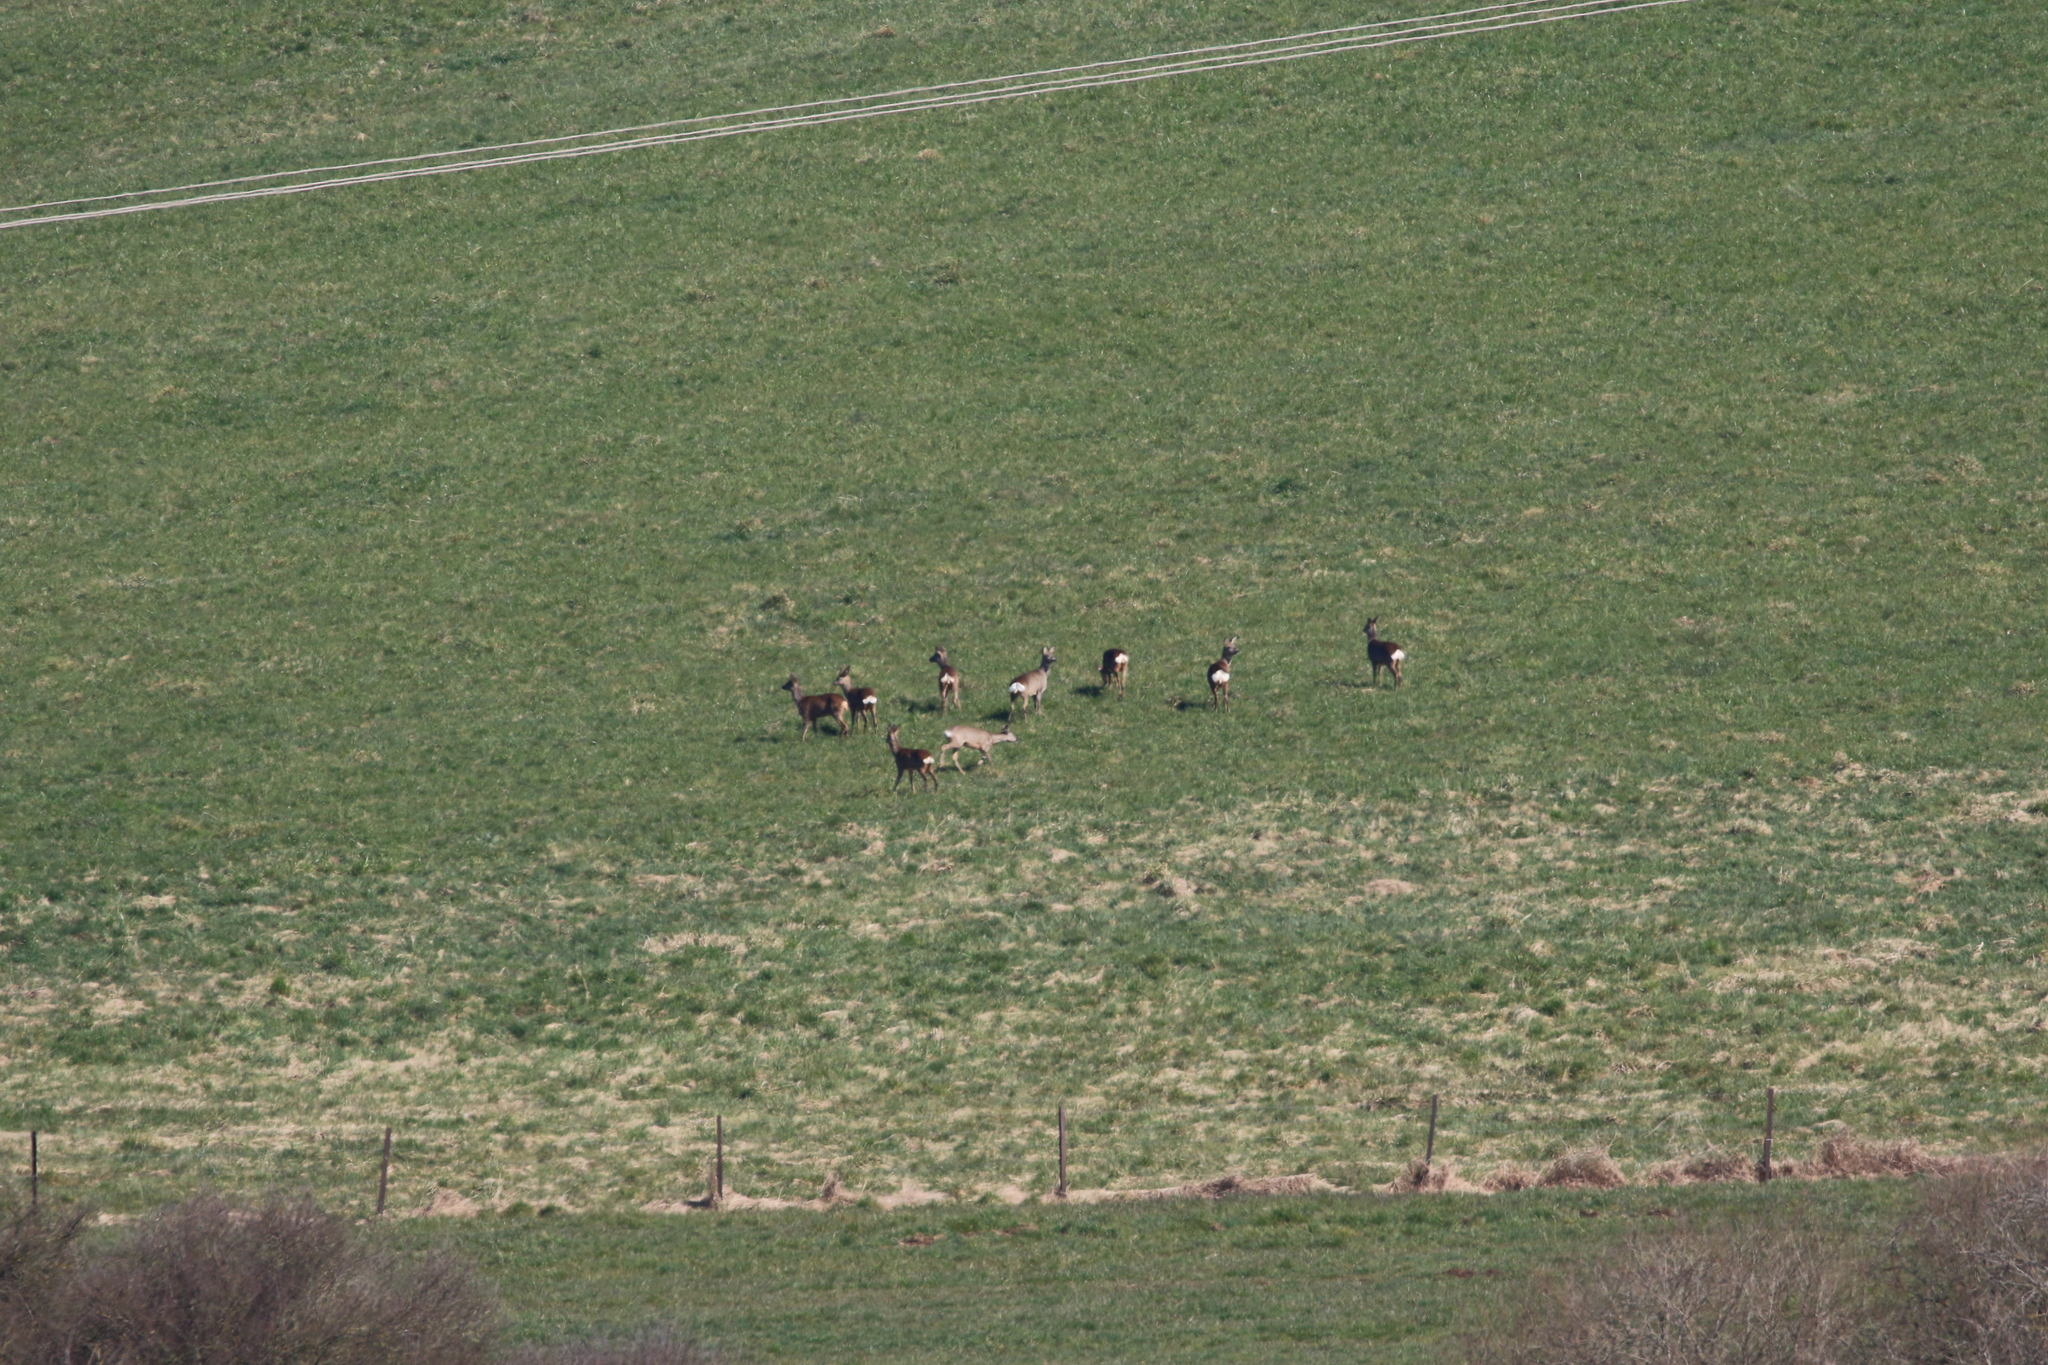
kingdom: Animalia
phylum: Chordata
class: Mammalia
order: Artiodactyla
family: Cervidae
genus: Capreolus
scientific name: Capreolus capreolus
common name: Western roe deer
